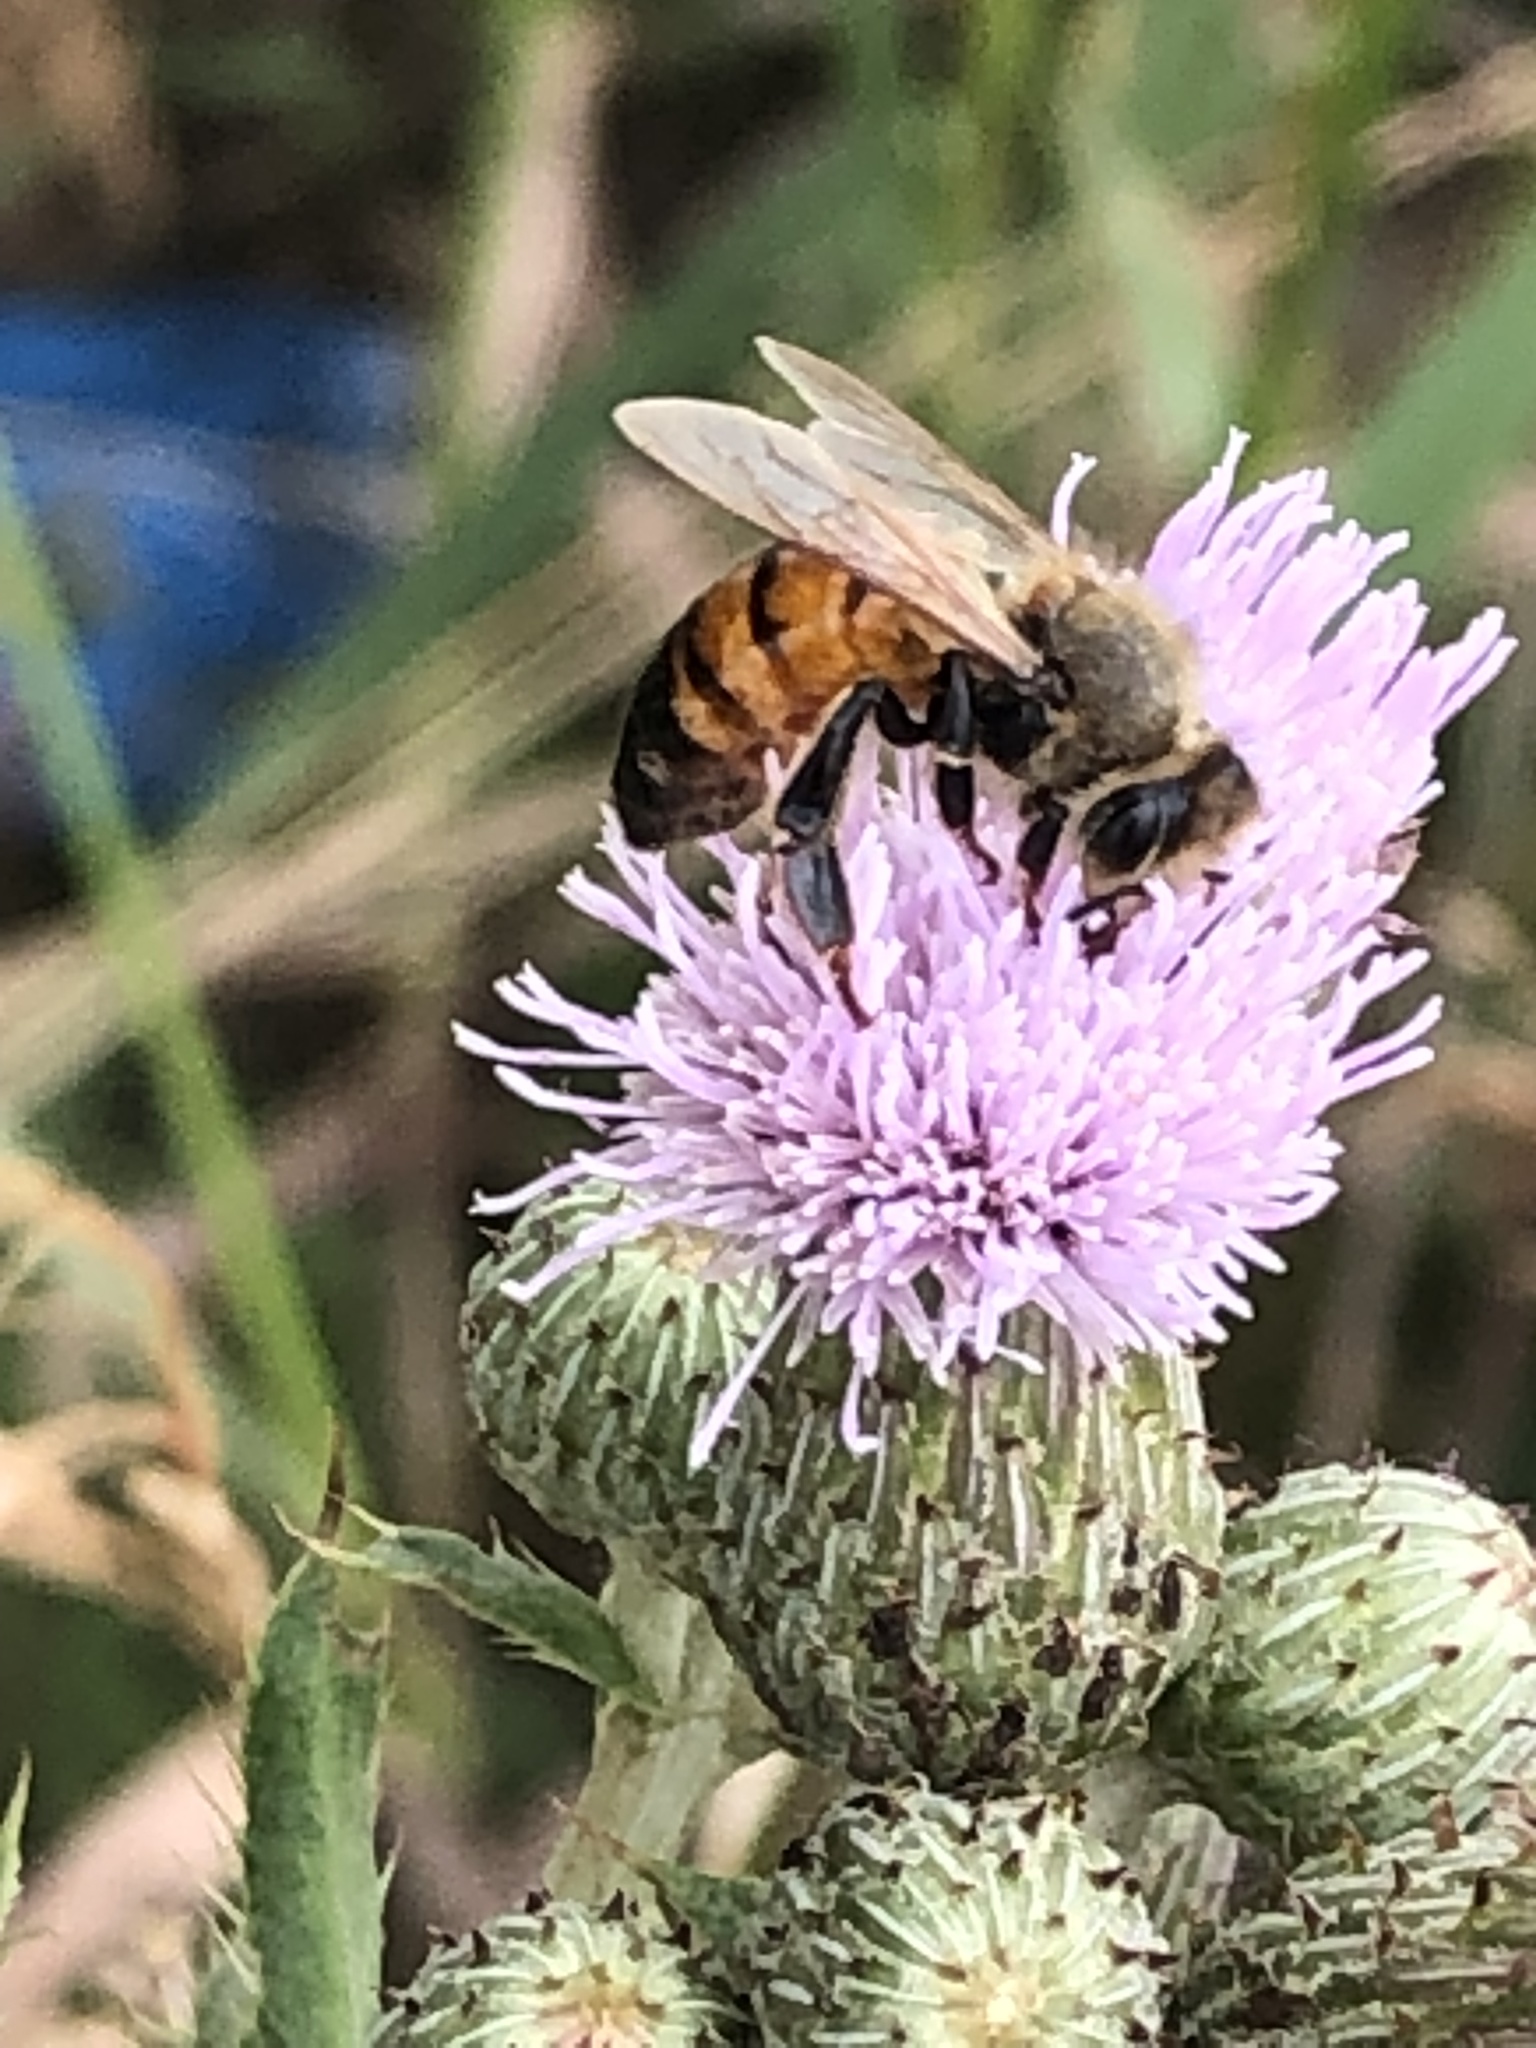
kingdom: Animalia
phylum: Arthropoda
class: Insecta
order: Hymenoptera
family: Apidae
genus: Apis
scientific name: Apis mellifera
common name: Honey bee
